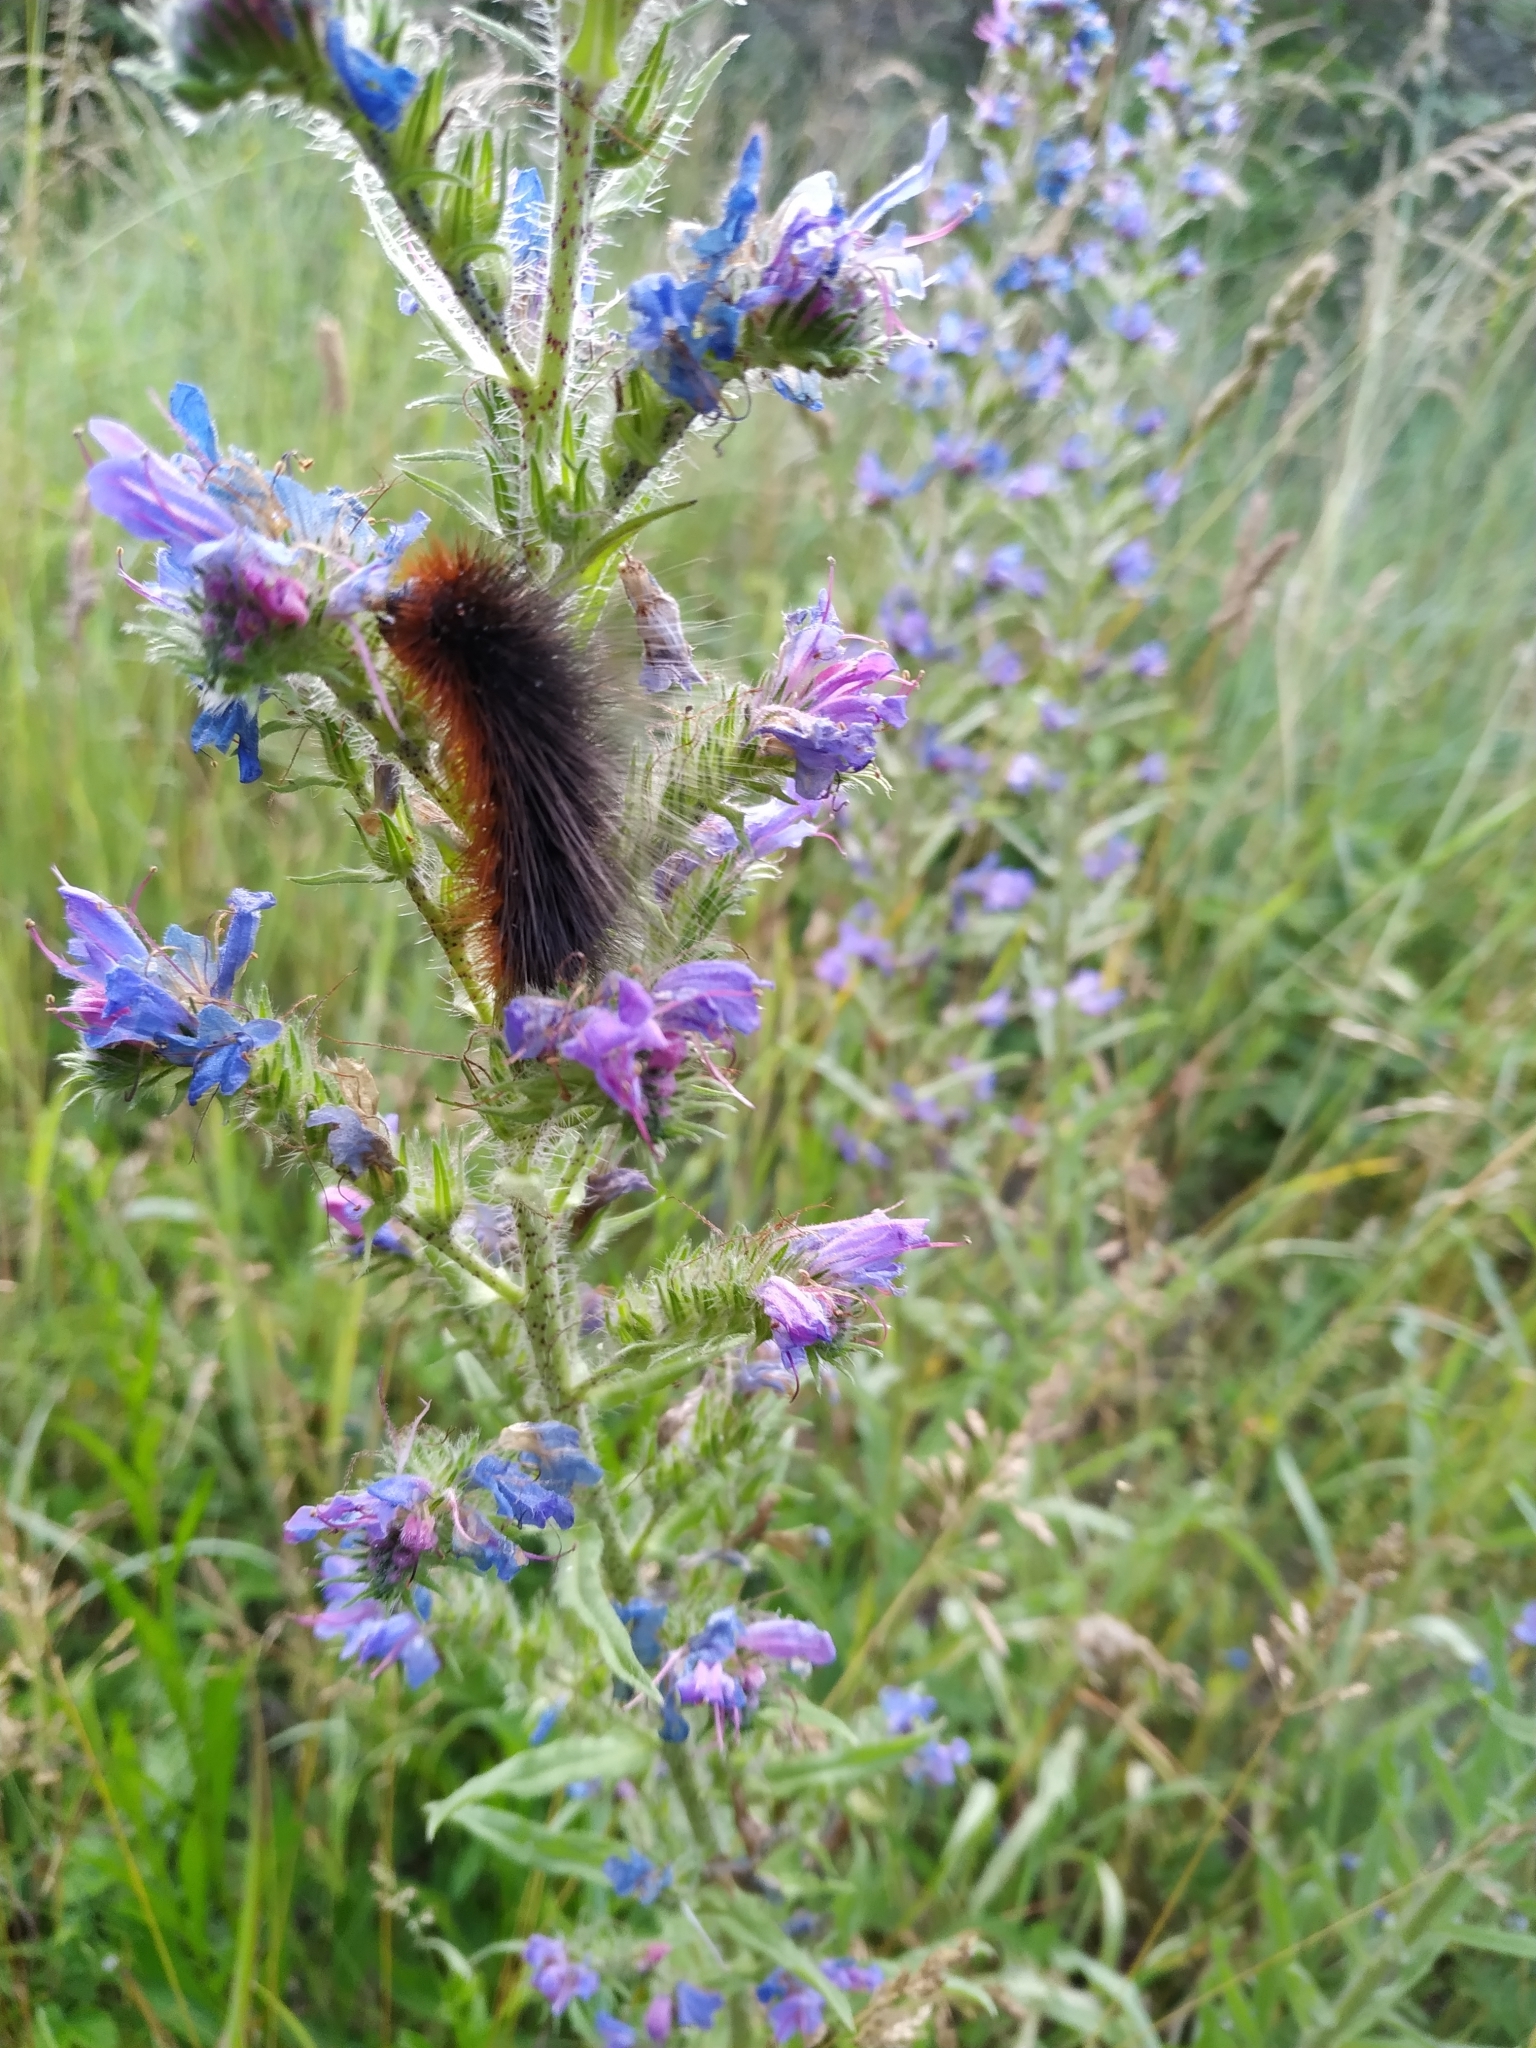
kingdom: Animalia
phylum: Arthropoda
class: Insecta
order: Lepidoptera
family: Erebidae
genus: Arctia
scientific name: Arctia caja
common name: Garden tiger
